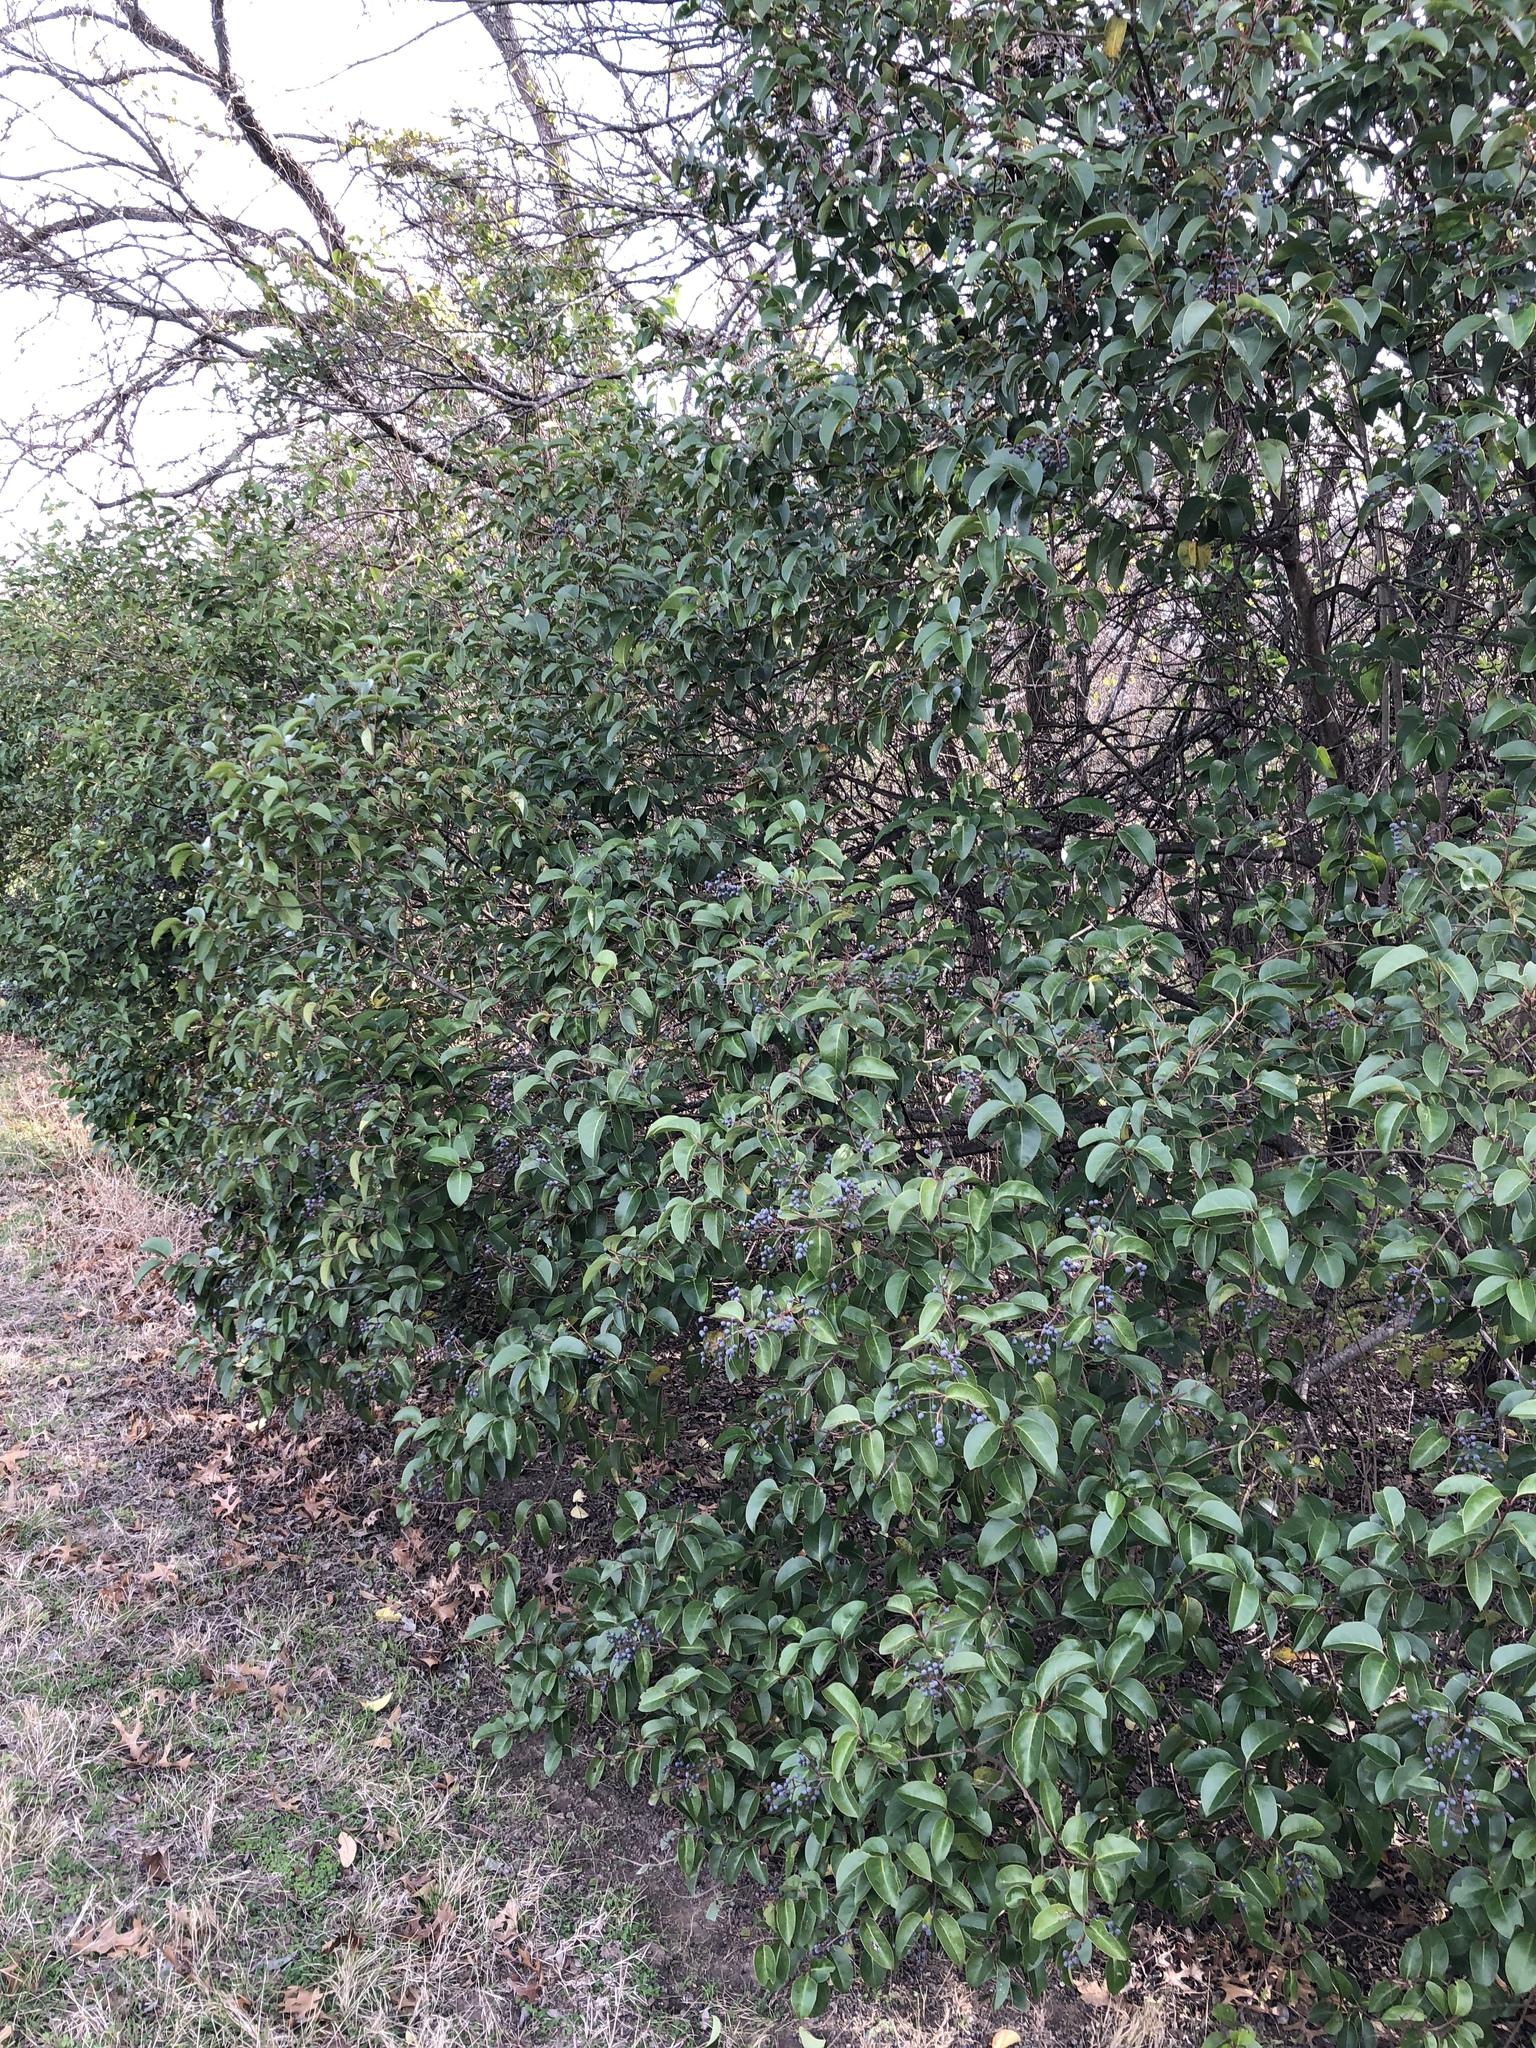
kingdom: Plantae
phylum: Tracheophyta
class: Magnoliopsida
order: Lamiales
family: Oleaceae
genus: Ligustrum
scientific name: Ligustrum lucidum
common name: Glossy privet
